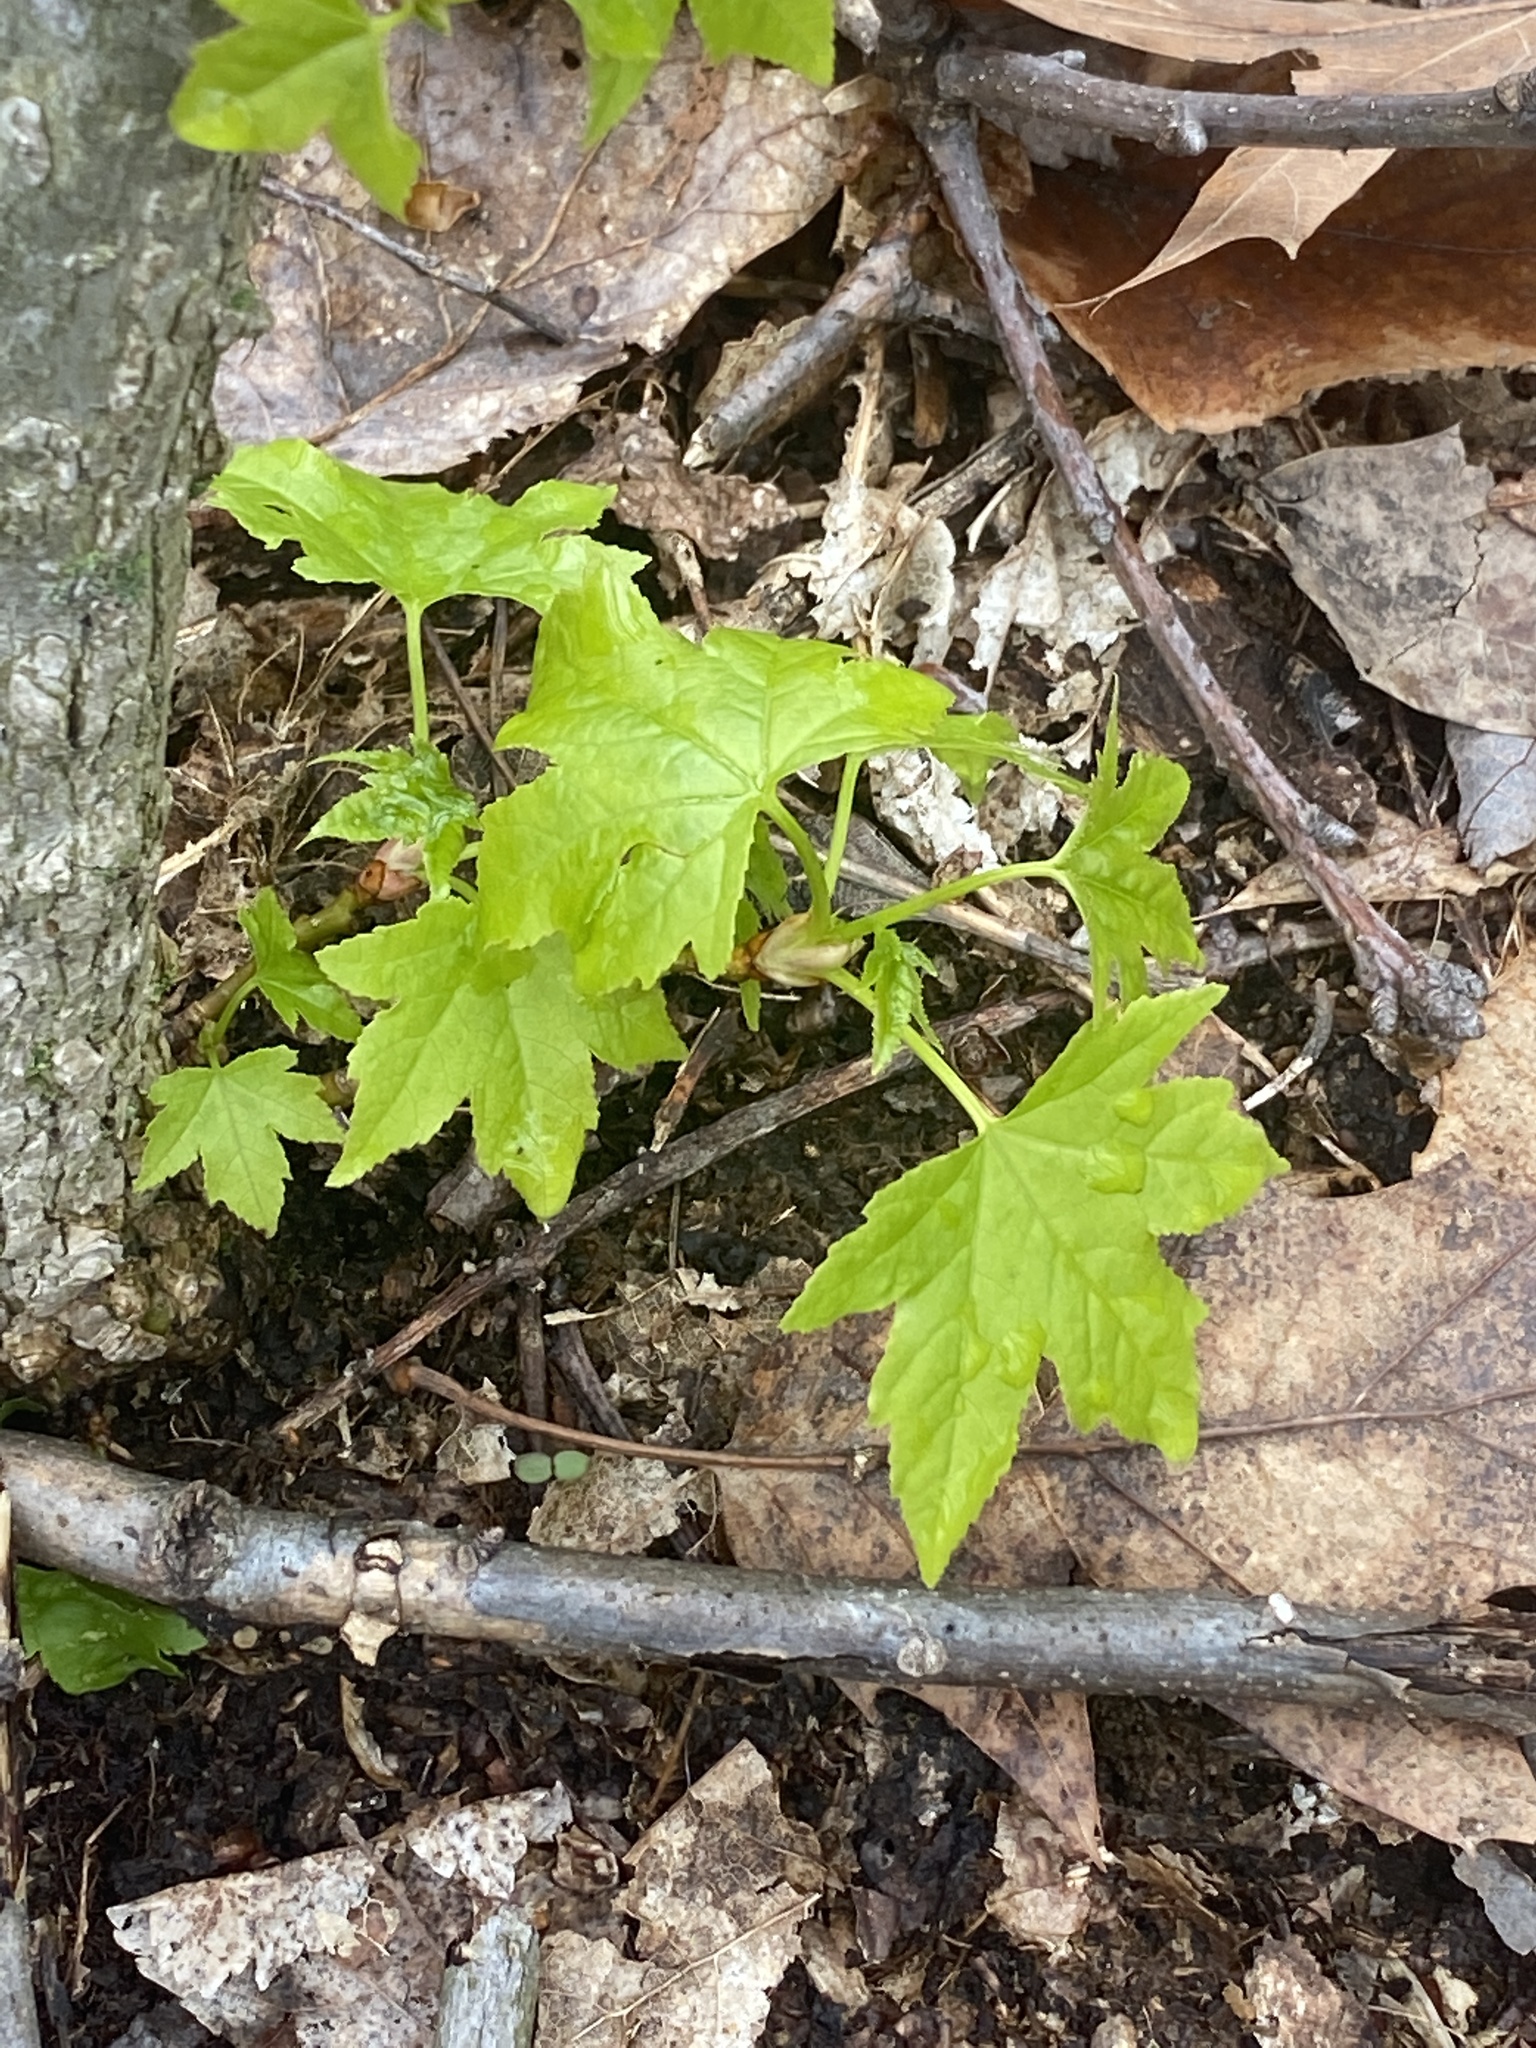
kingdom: Plantae
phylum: Tracheophyta
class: Magnoliopsida
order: Saxifragales
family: Altingiaceae
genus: Liquidambar
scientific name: Liquidambar styraciflua
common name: Sweet gum
